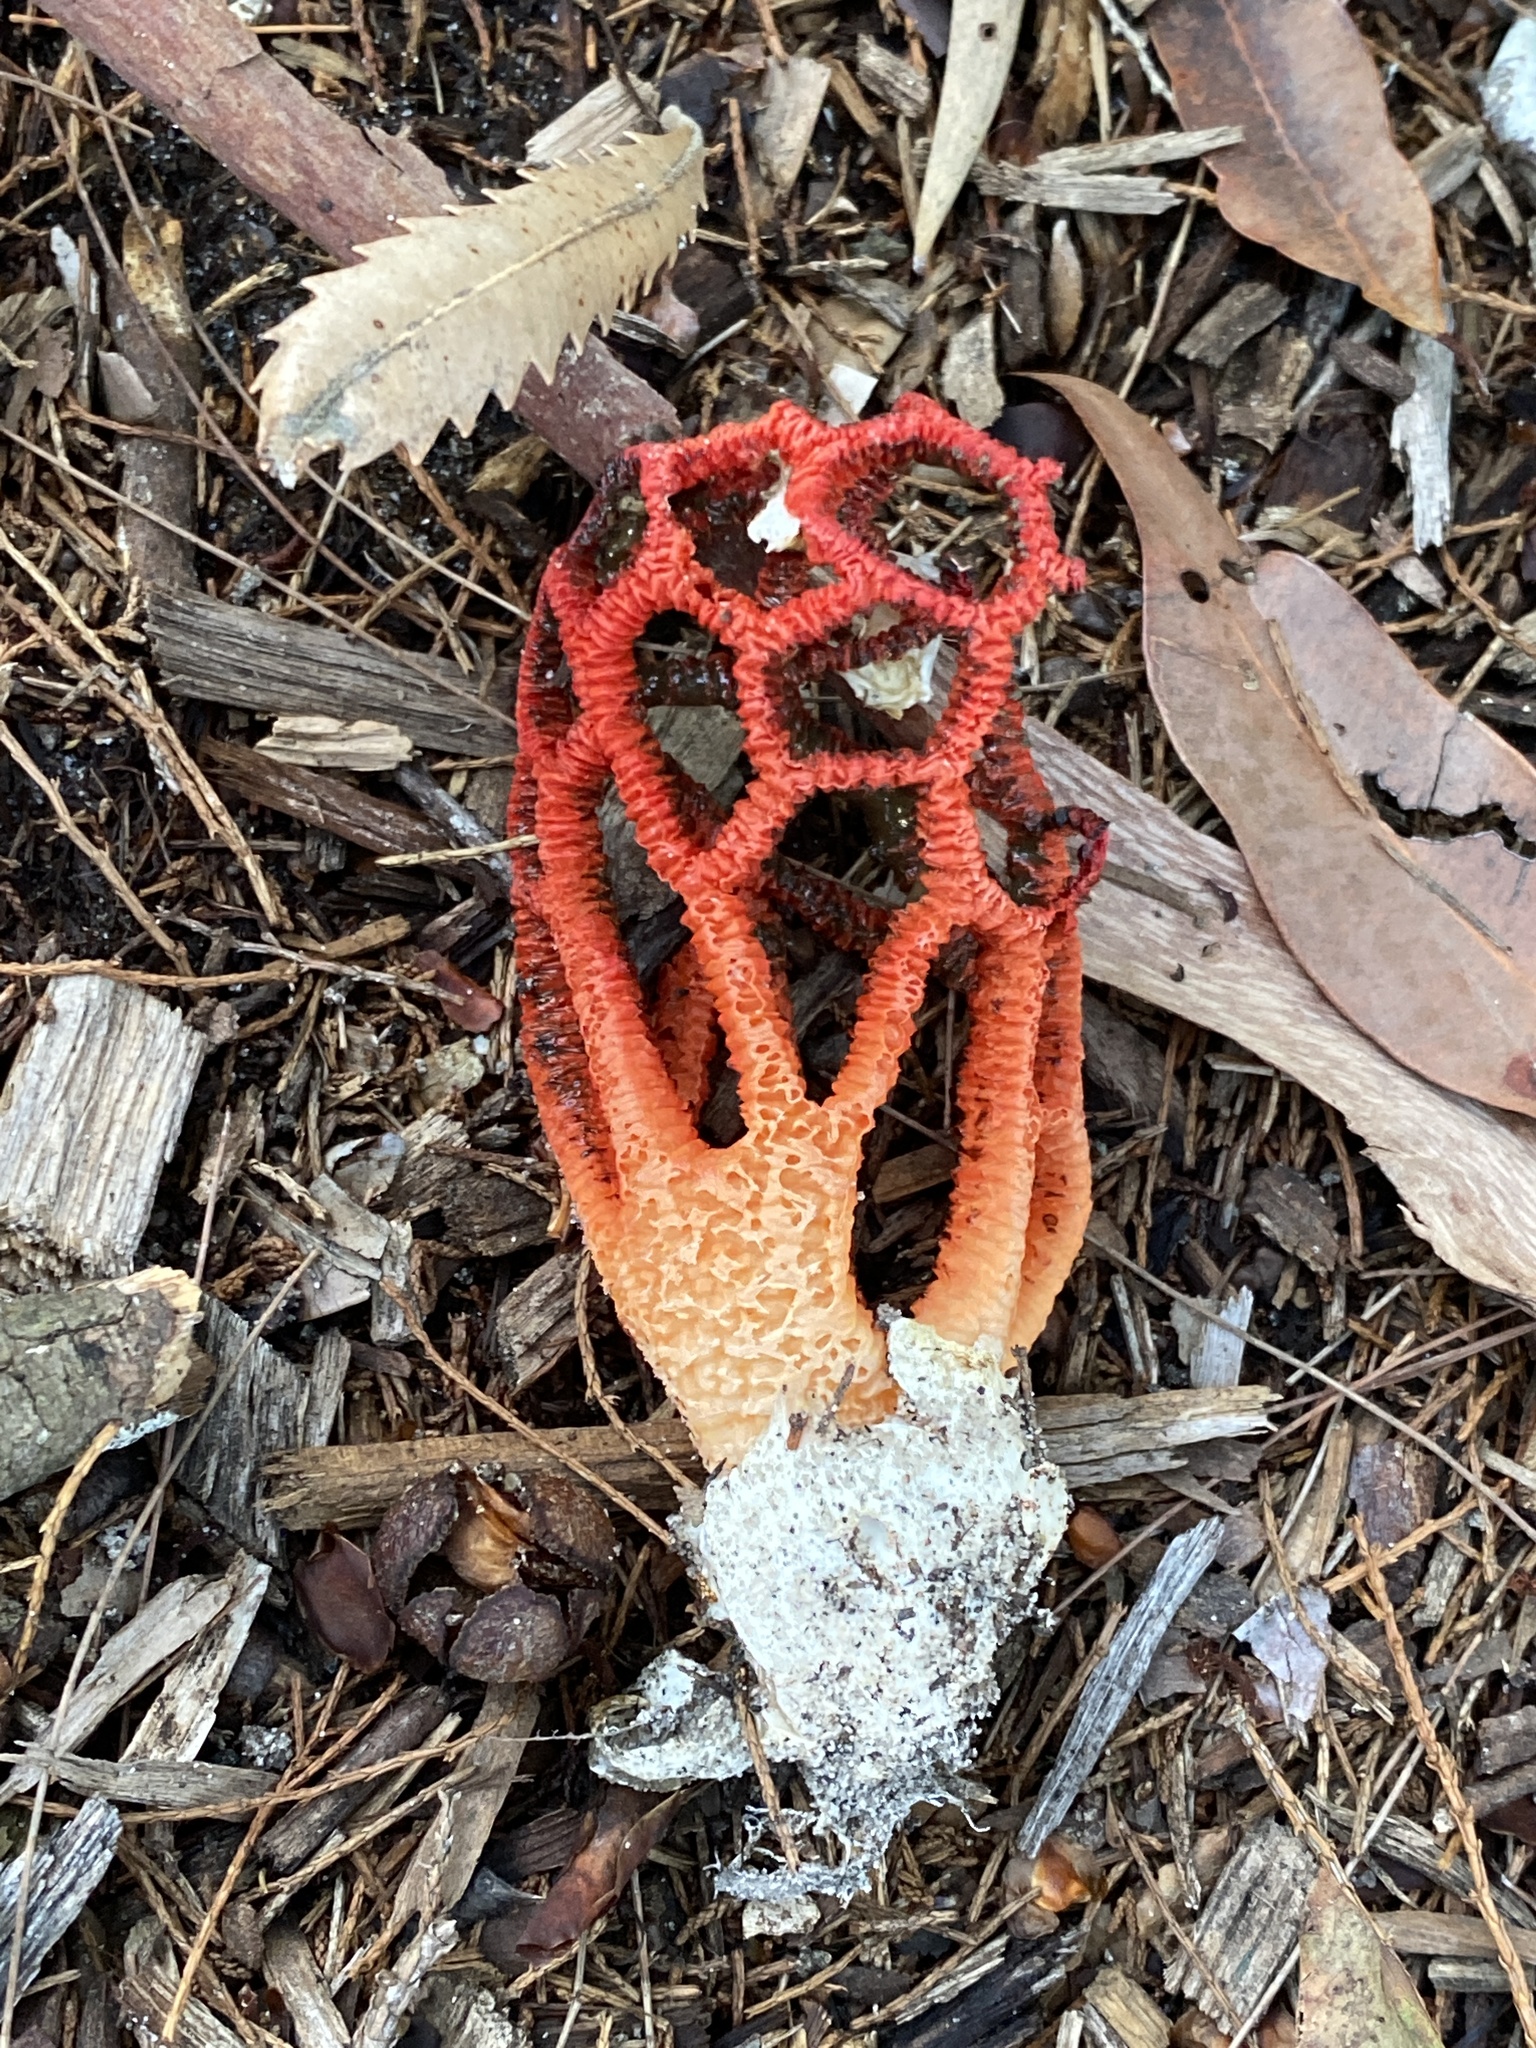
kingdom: Fungi
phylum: Basidiomycota
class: Agaricomycetes
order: Phallales
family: Phallaceae
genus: Colus
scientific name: Colus pusillus
